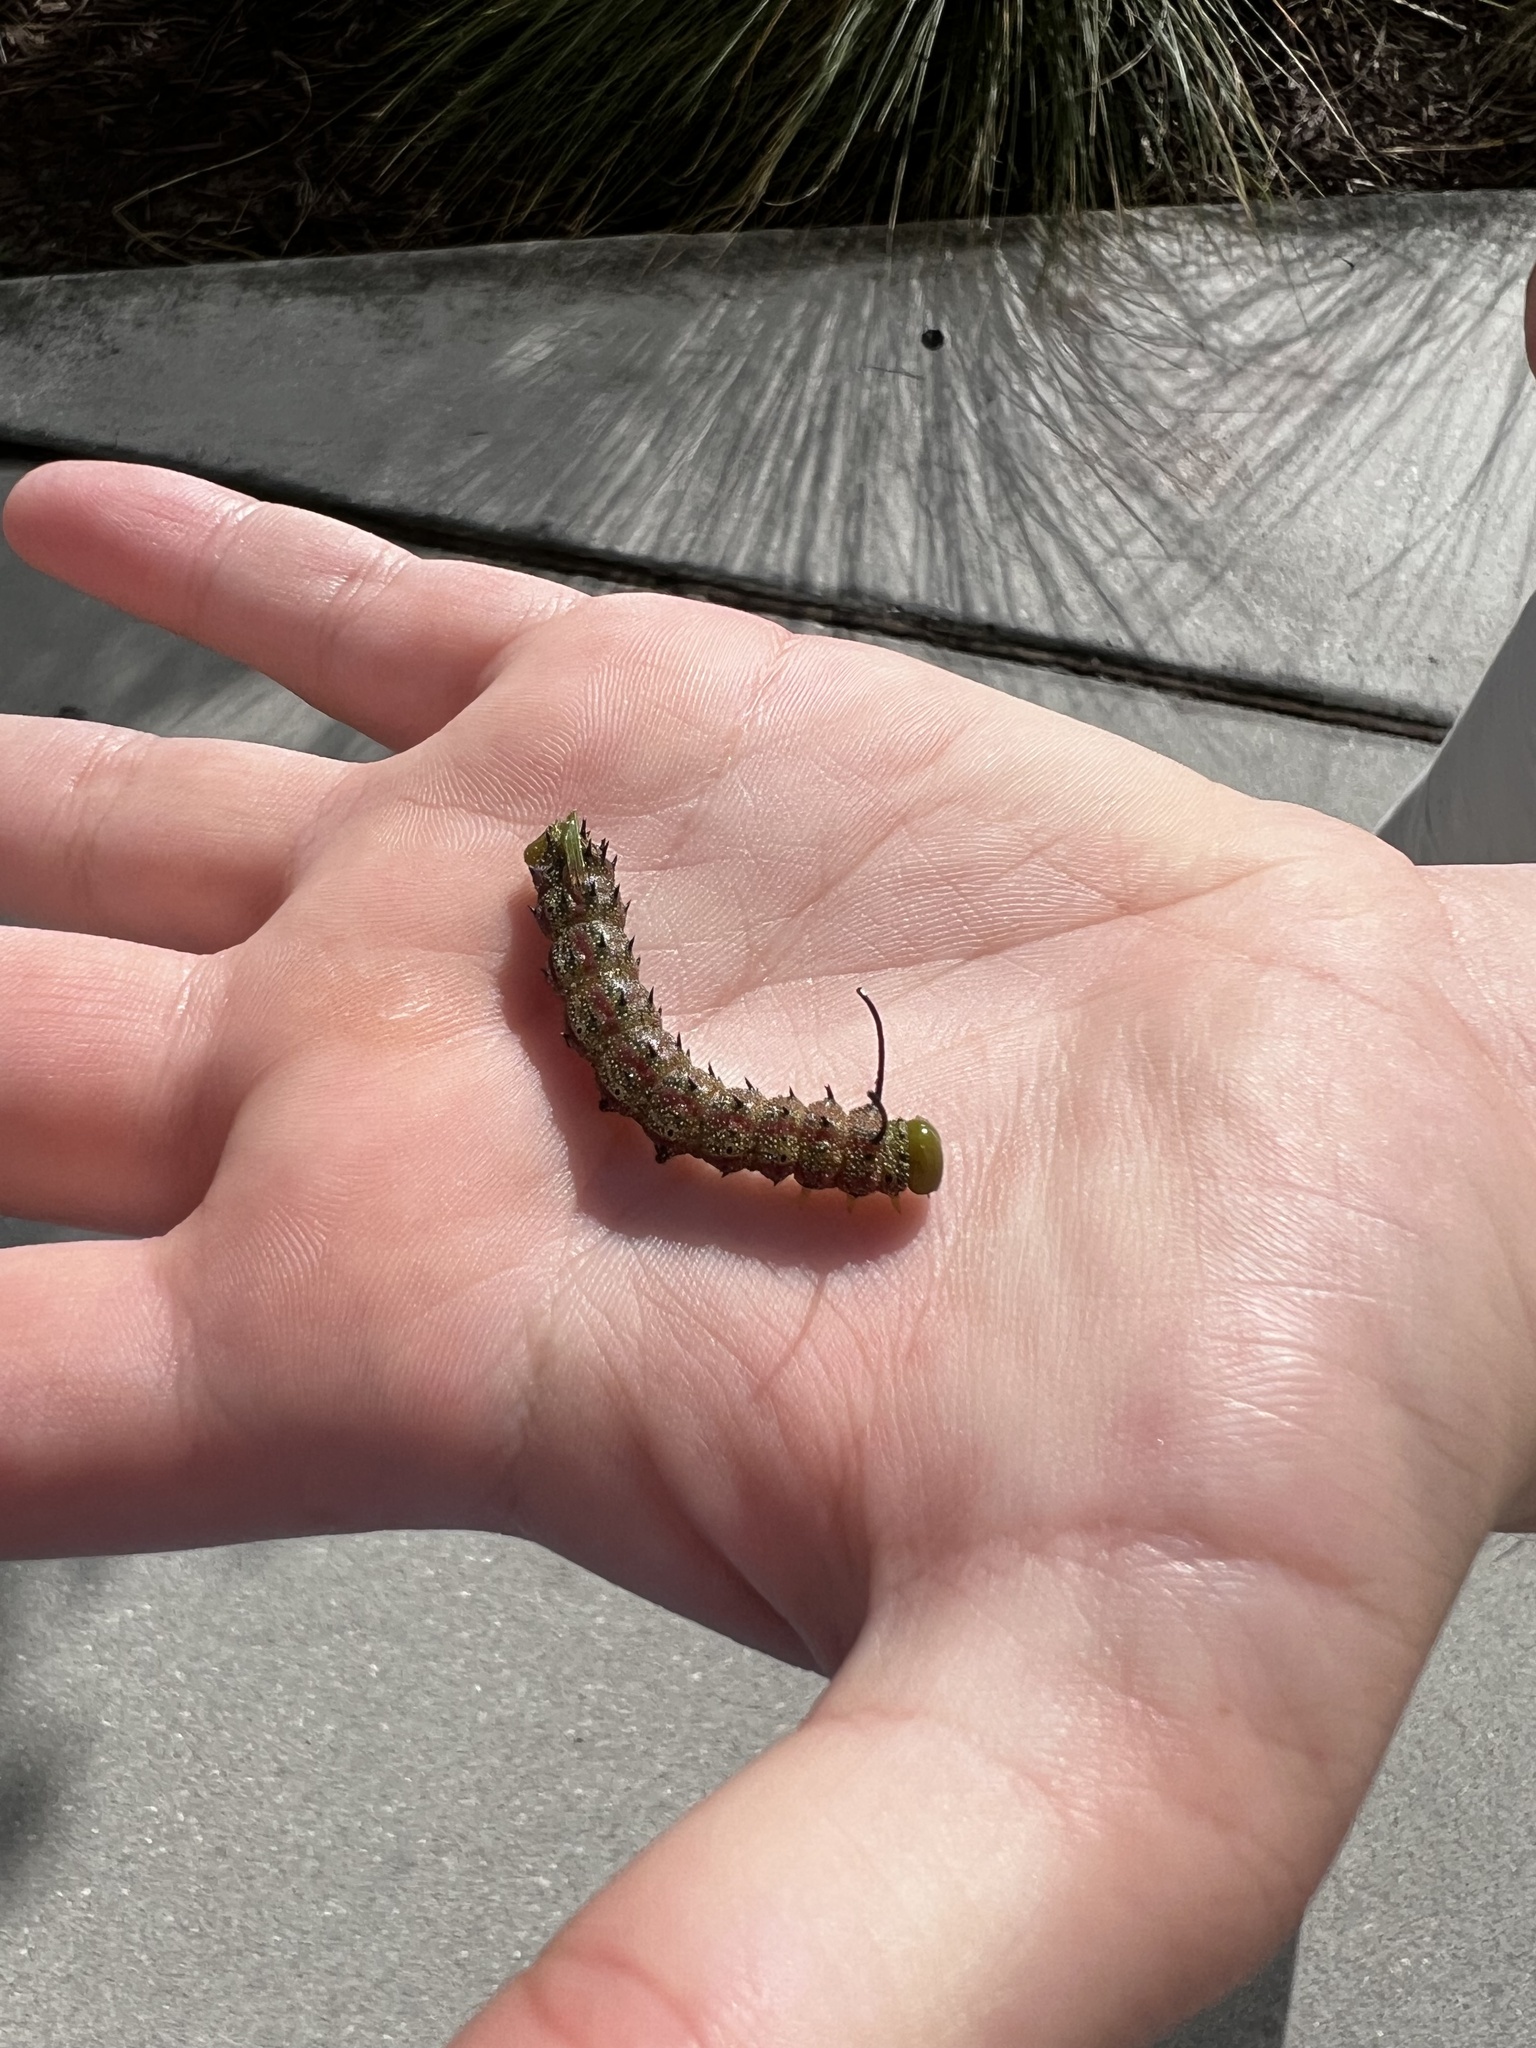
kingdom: Animalia
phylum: Arthropoda
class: Insecta
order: Lepidoptera
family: Saturniidae
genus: Anisota
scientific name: Anisota virginiensis
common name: Pink striped oakworm moth
